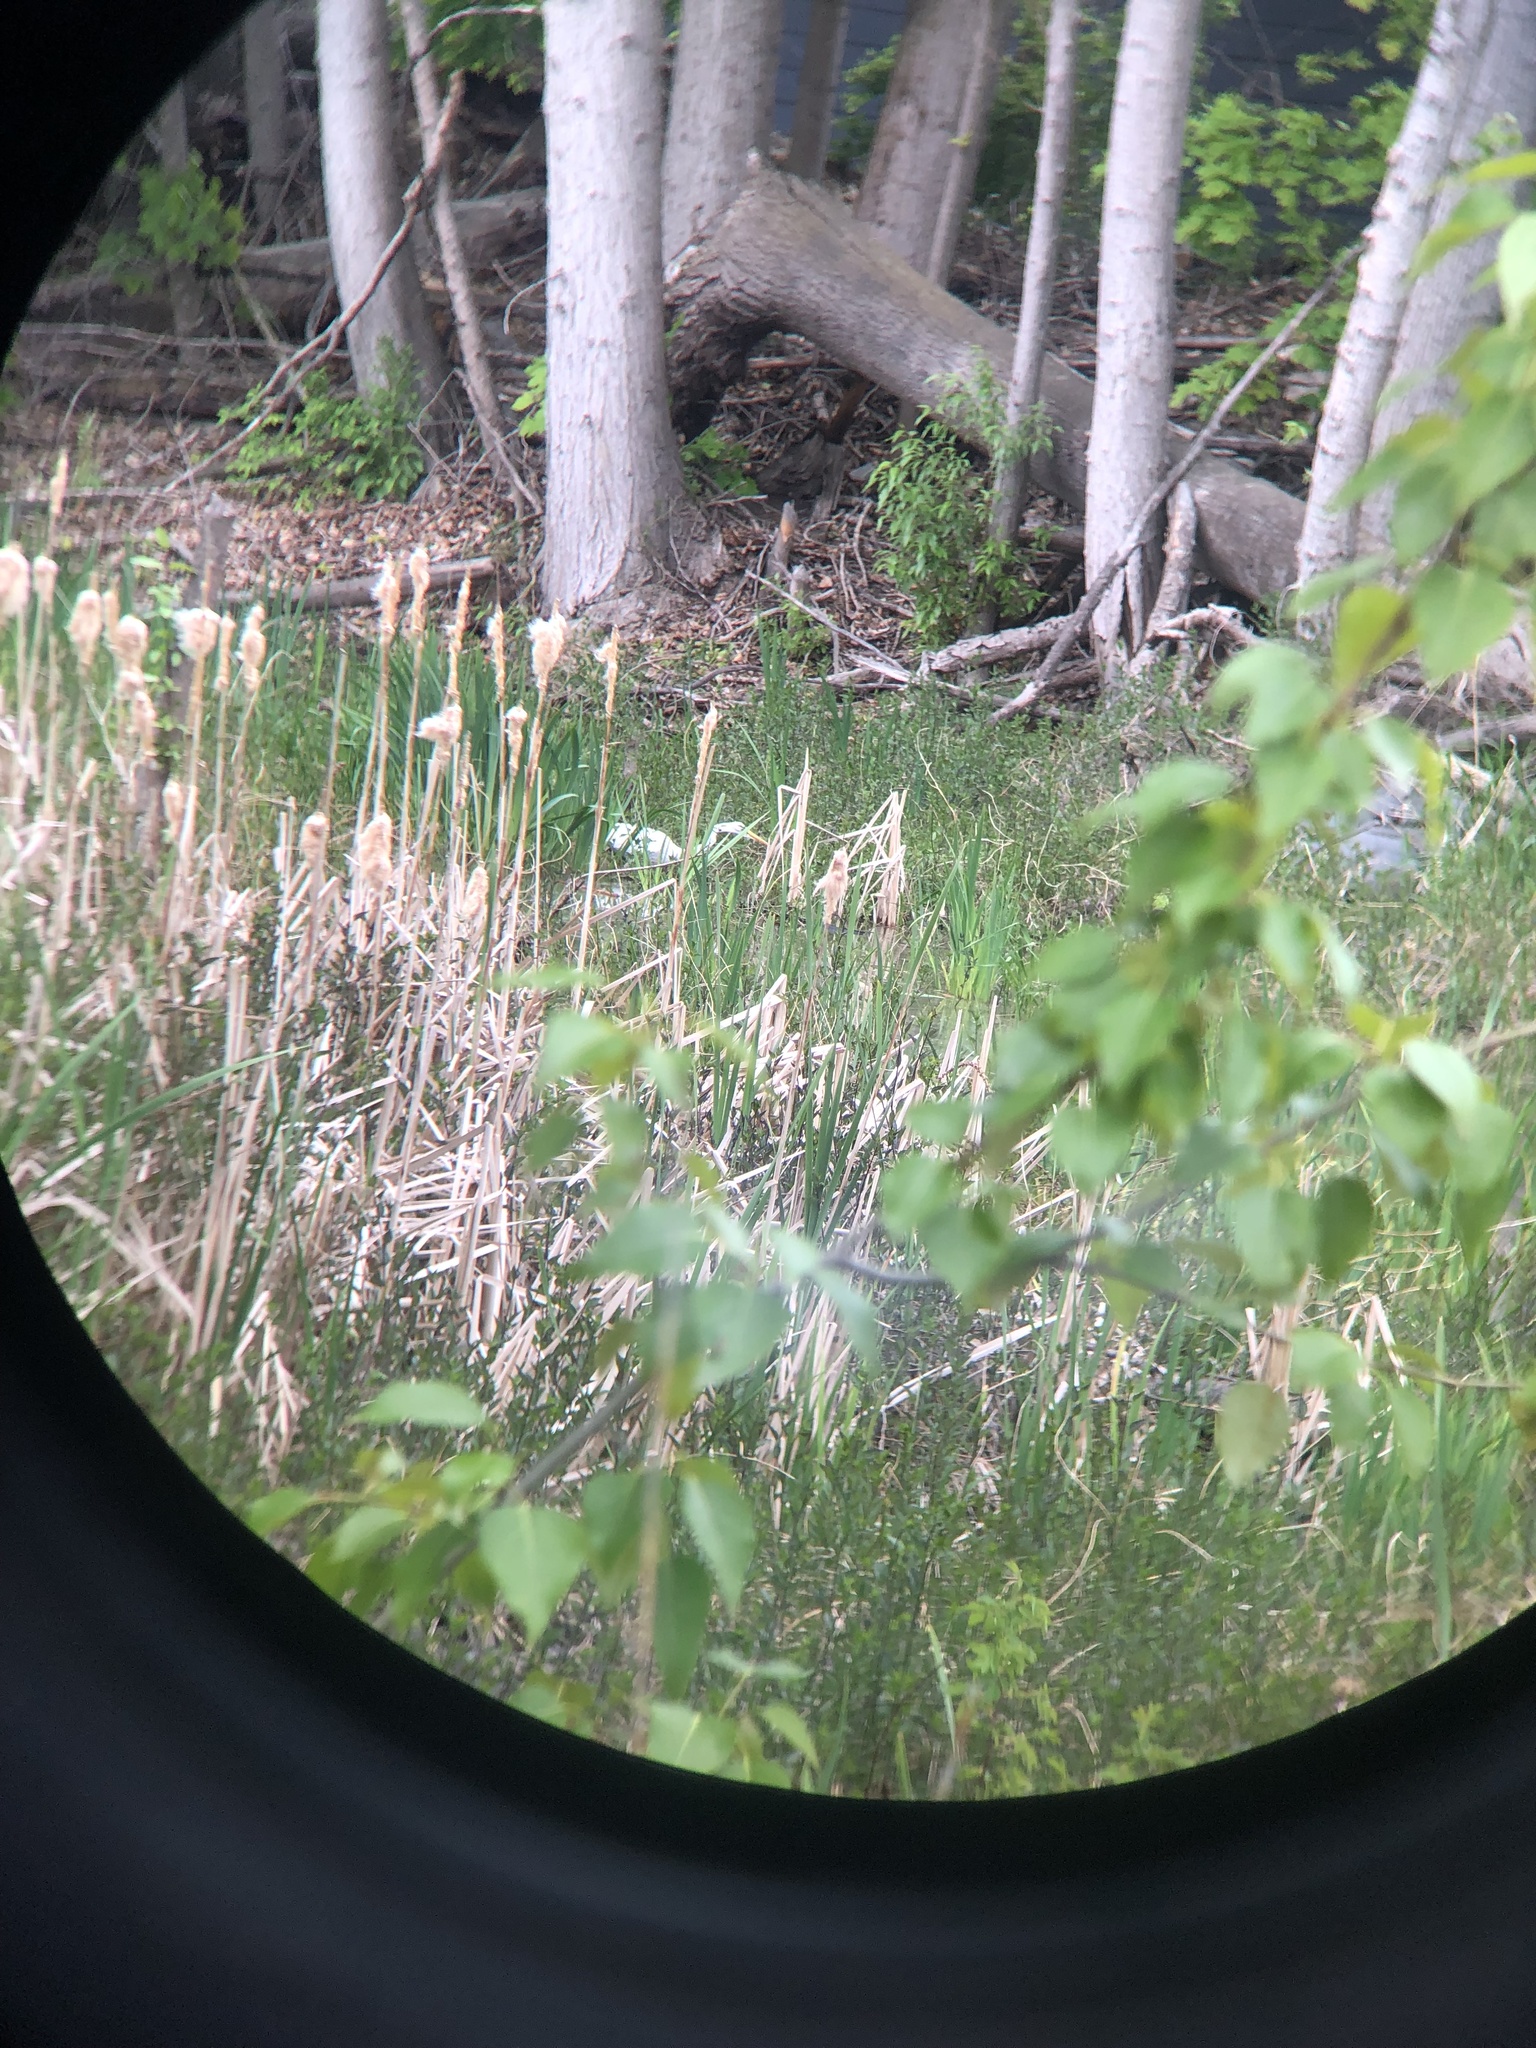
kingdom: Animalia
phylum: Chordata
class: Aves
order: Pelecaniformes
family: Ardeidae
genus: Ardea
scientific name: Ardea alba
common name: Great egret
